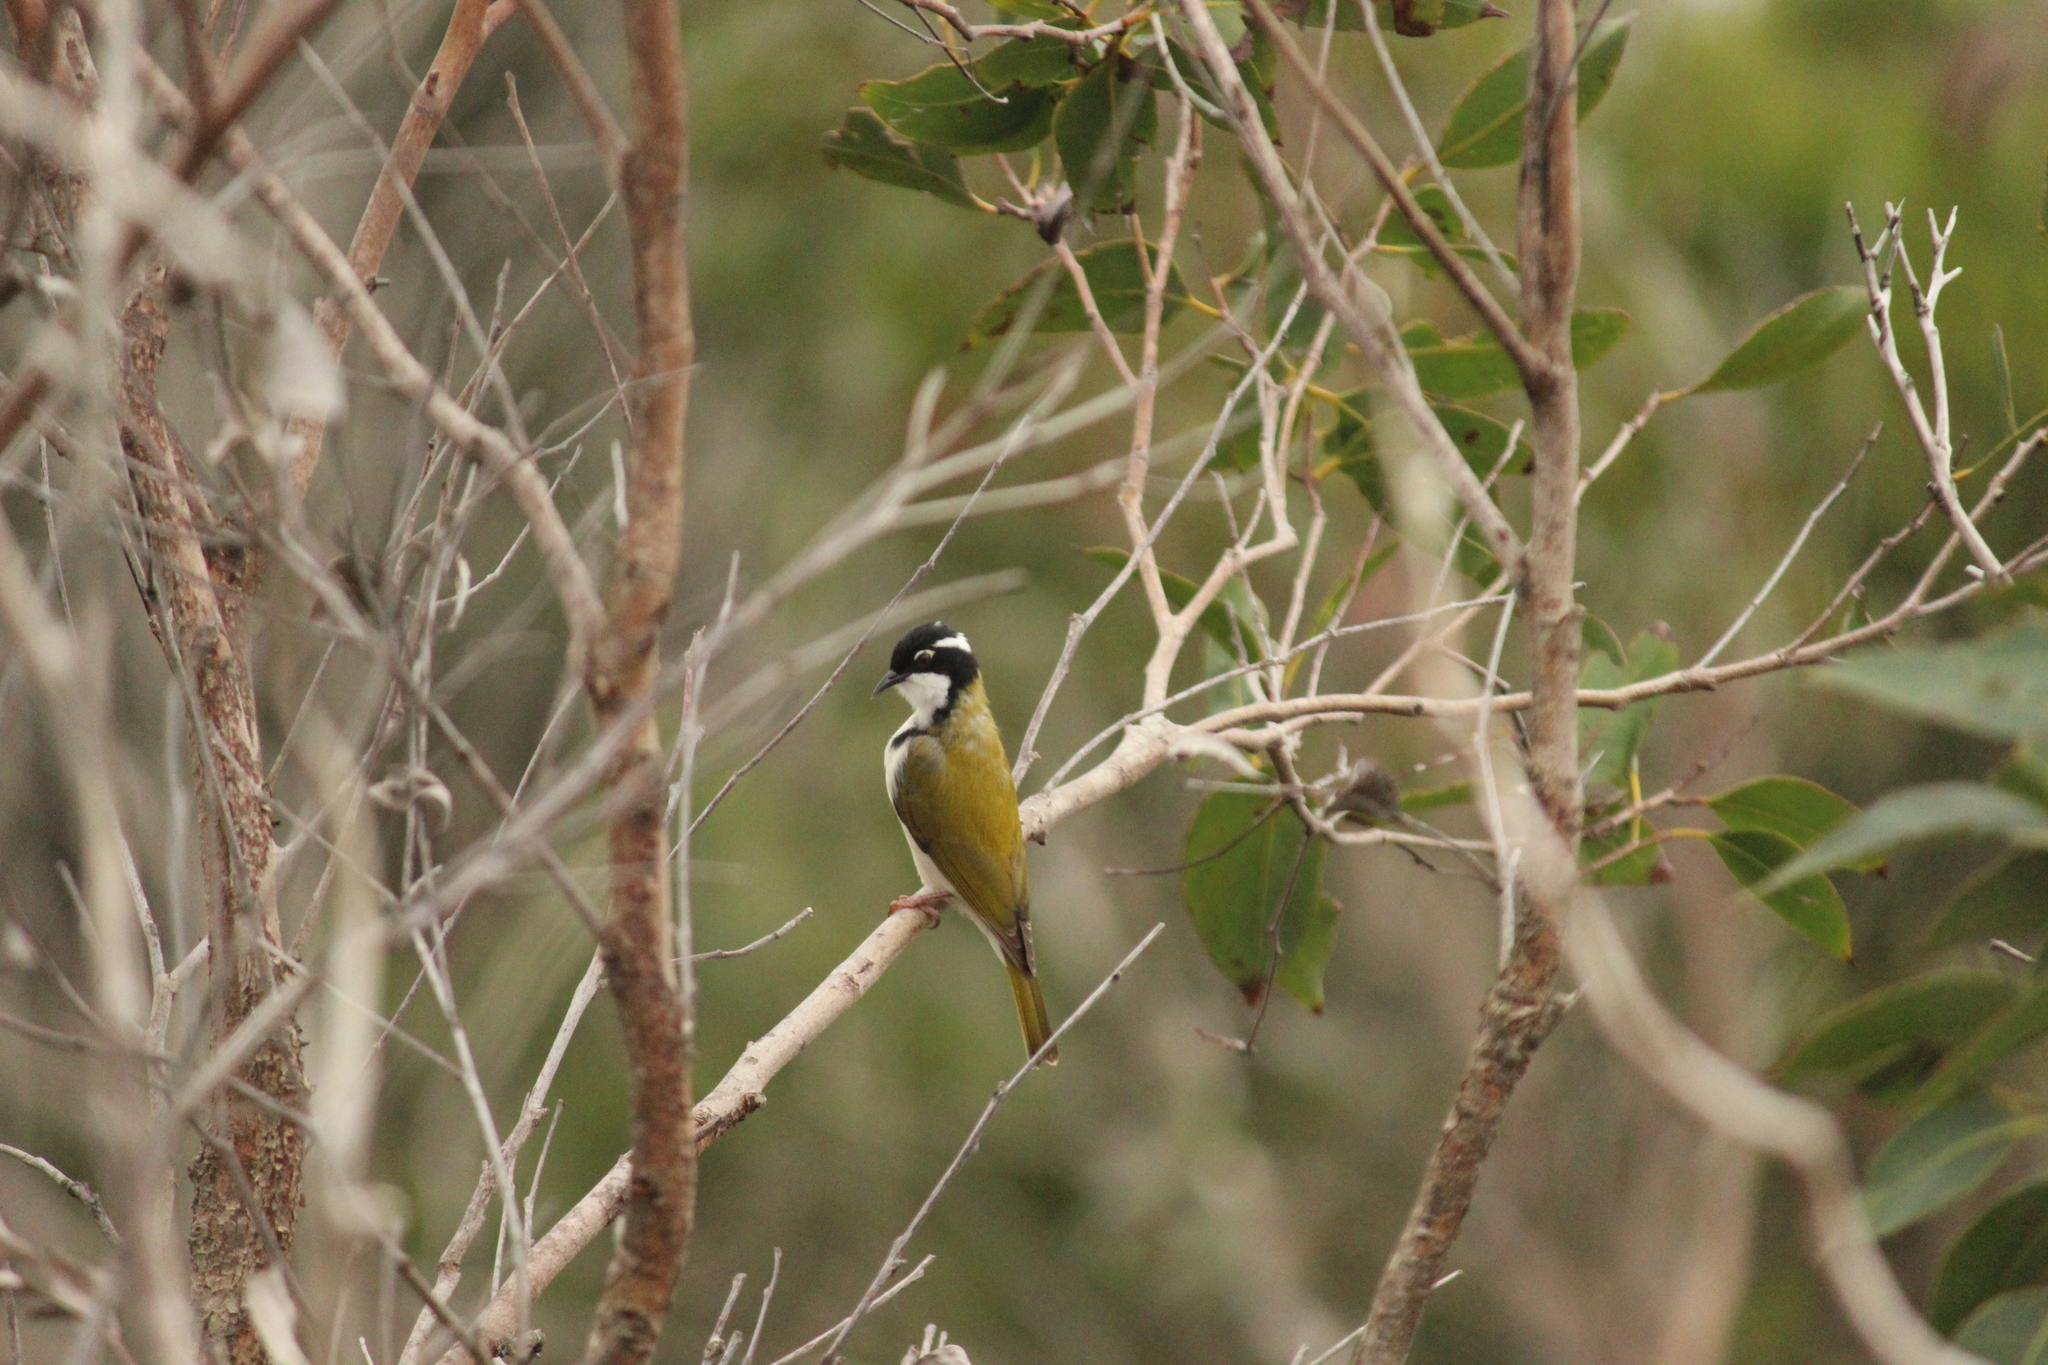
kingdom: Animalia
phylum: Chordata
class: Aves
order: Passeriformes
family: Meliphagidae
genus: Melithreptus
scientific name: Melithreptus albogularis
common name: White-throated honeyeater
